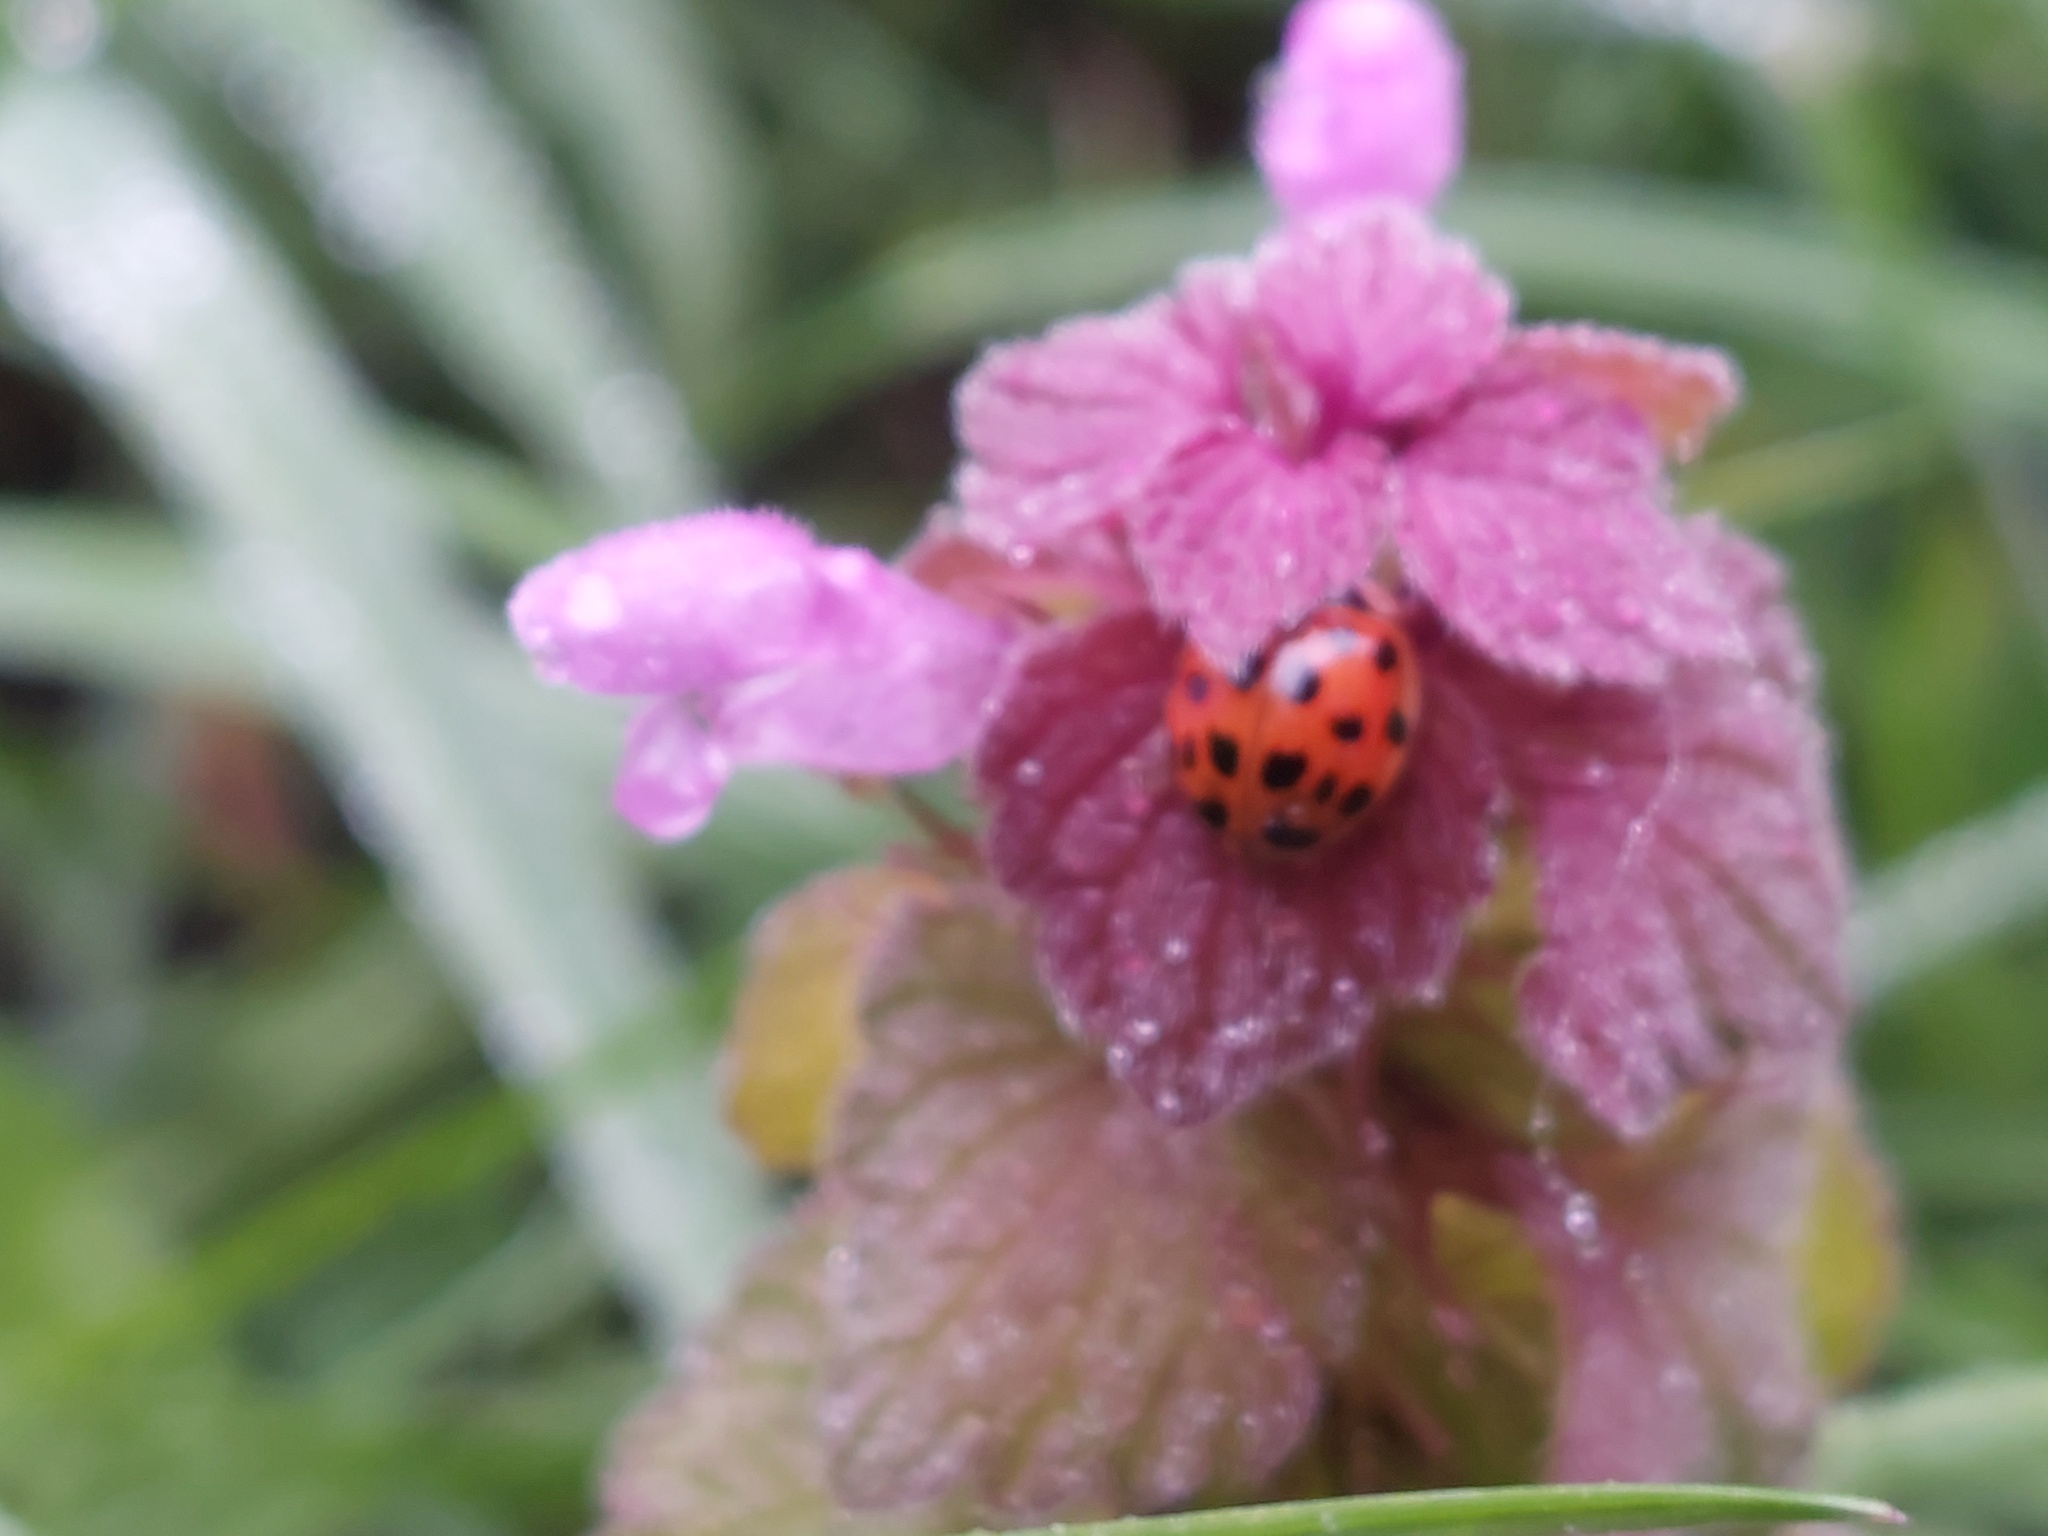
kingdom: Animalia
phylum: Arthropoda
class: Insecta
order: Coleoptera
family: Coccinellidae
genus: Harmonia
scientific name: Harmonia axyridis
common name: Harlequin ladybird
